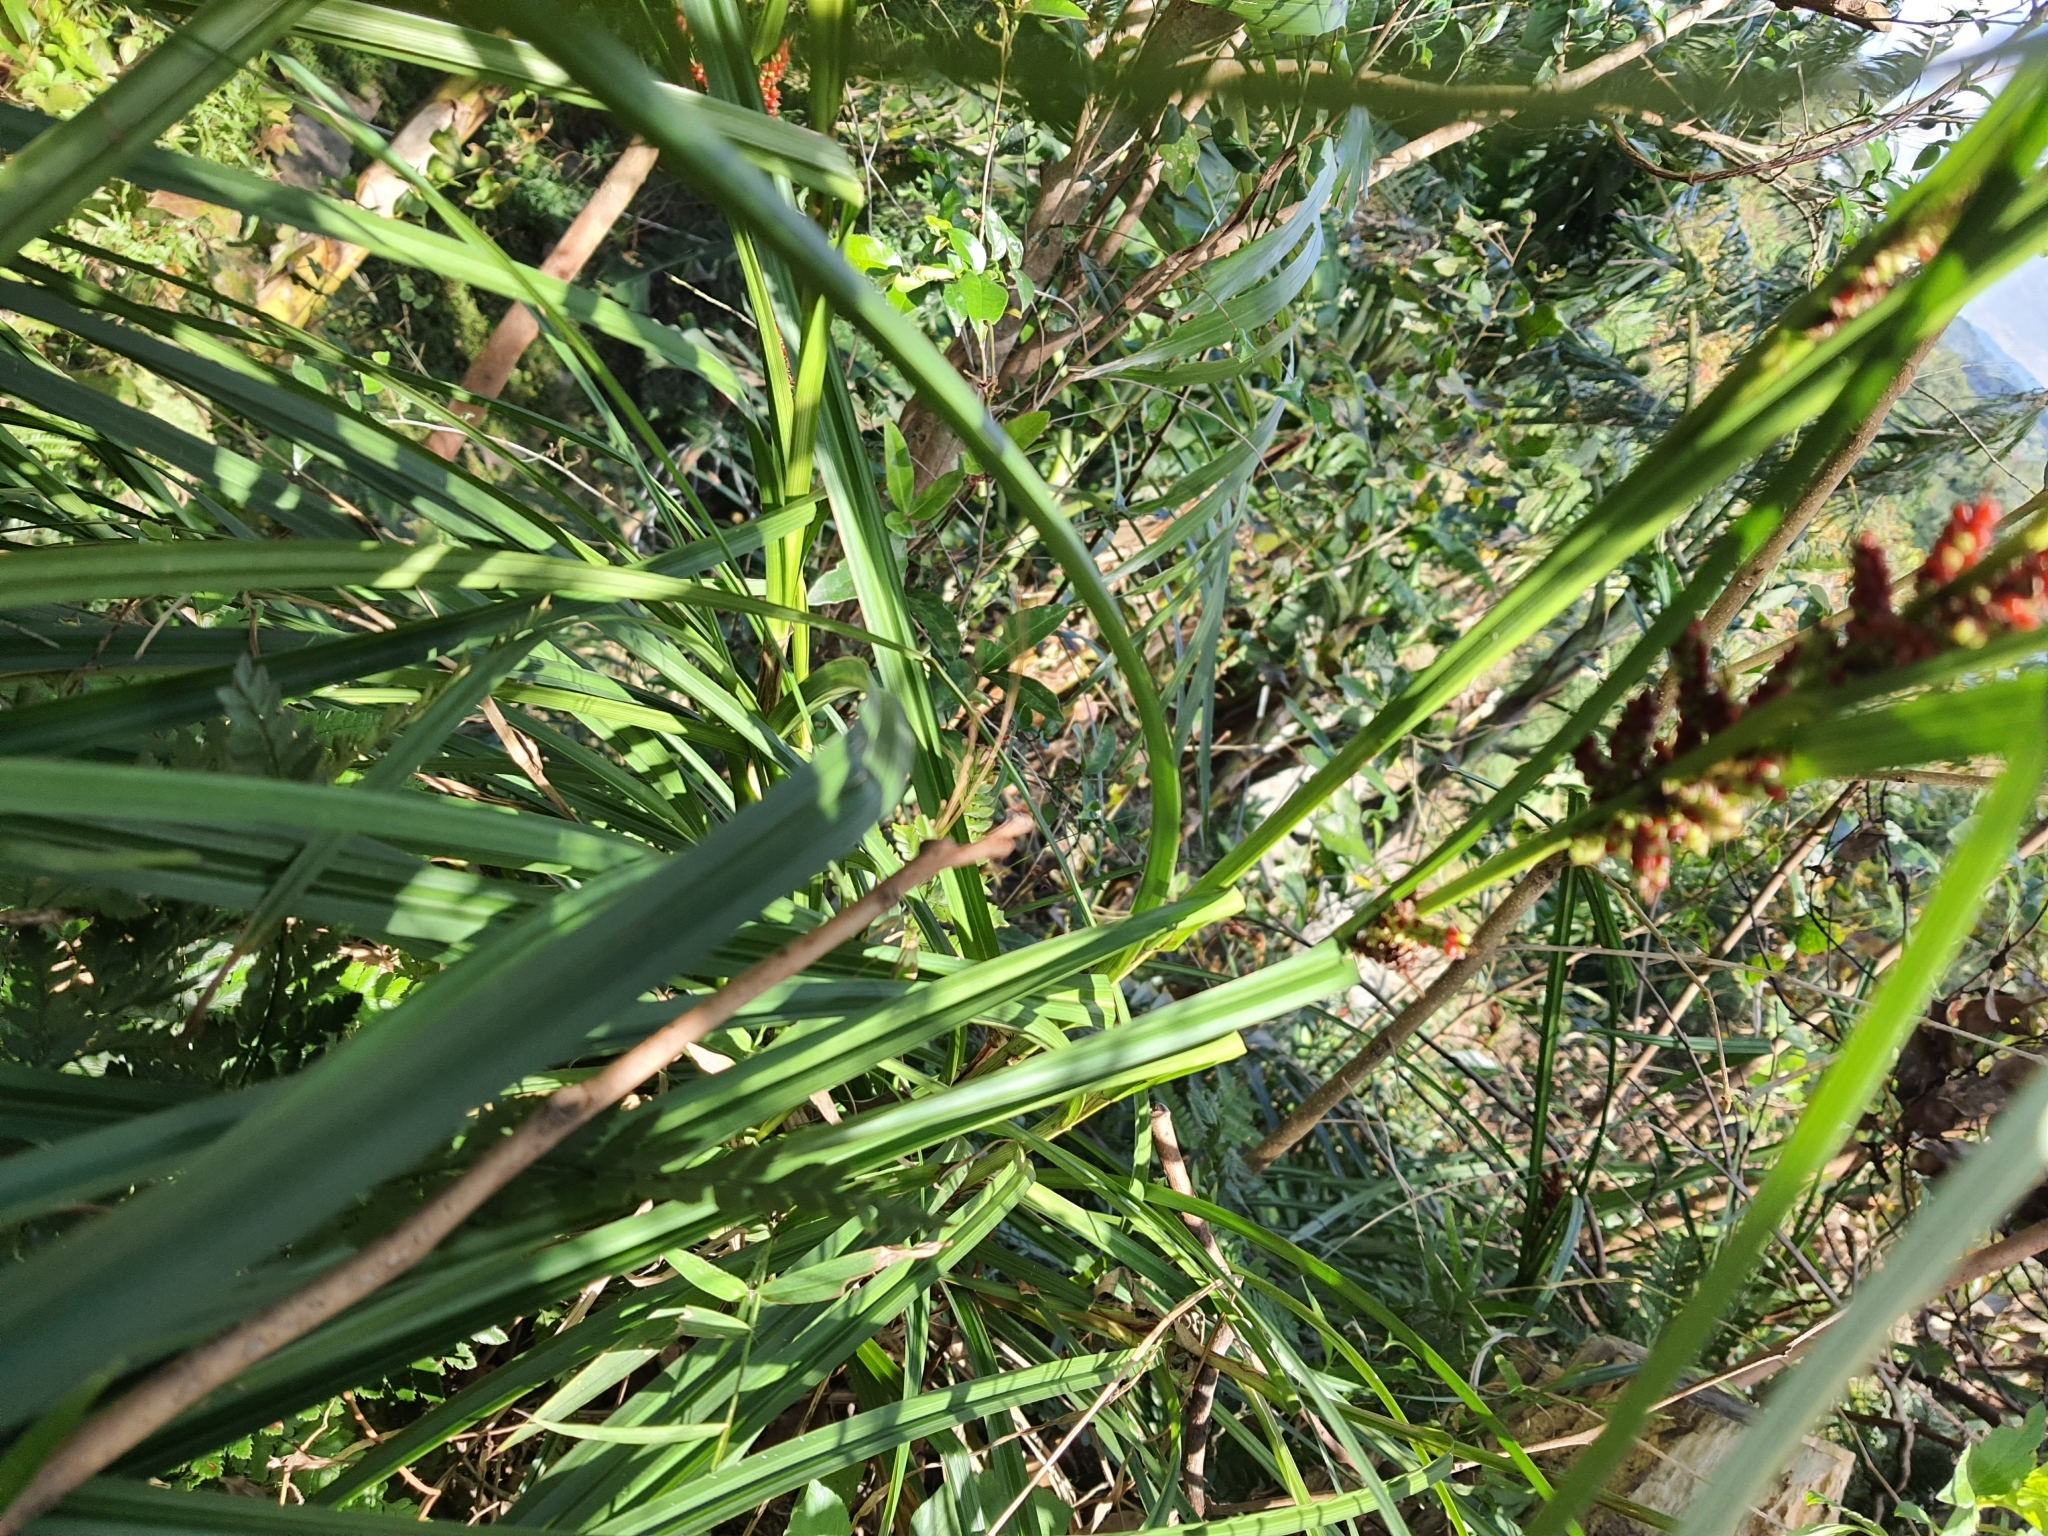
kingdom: Plantae
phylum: Tracheophyta
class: Liliopsida
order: Poales
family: Cyperaceae
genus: Carex
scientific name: Carex baccans
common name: Crimson seeded sedge
